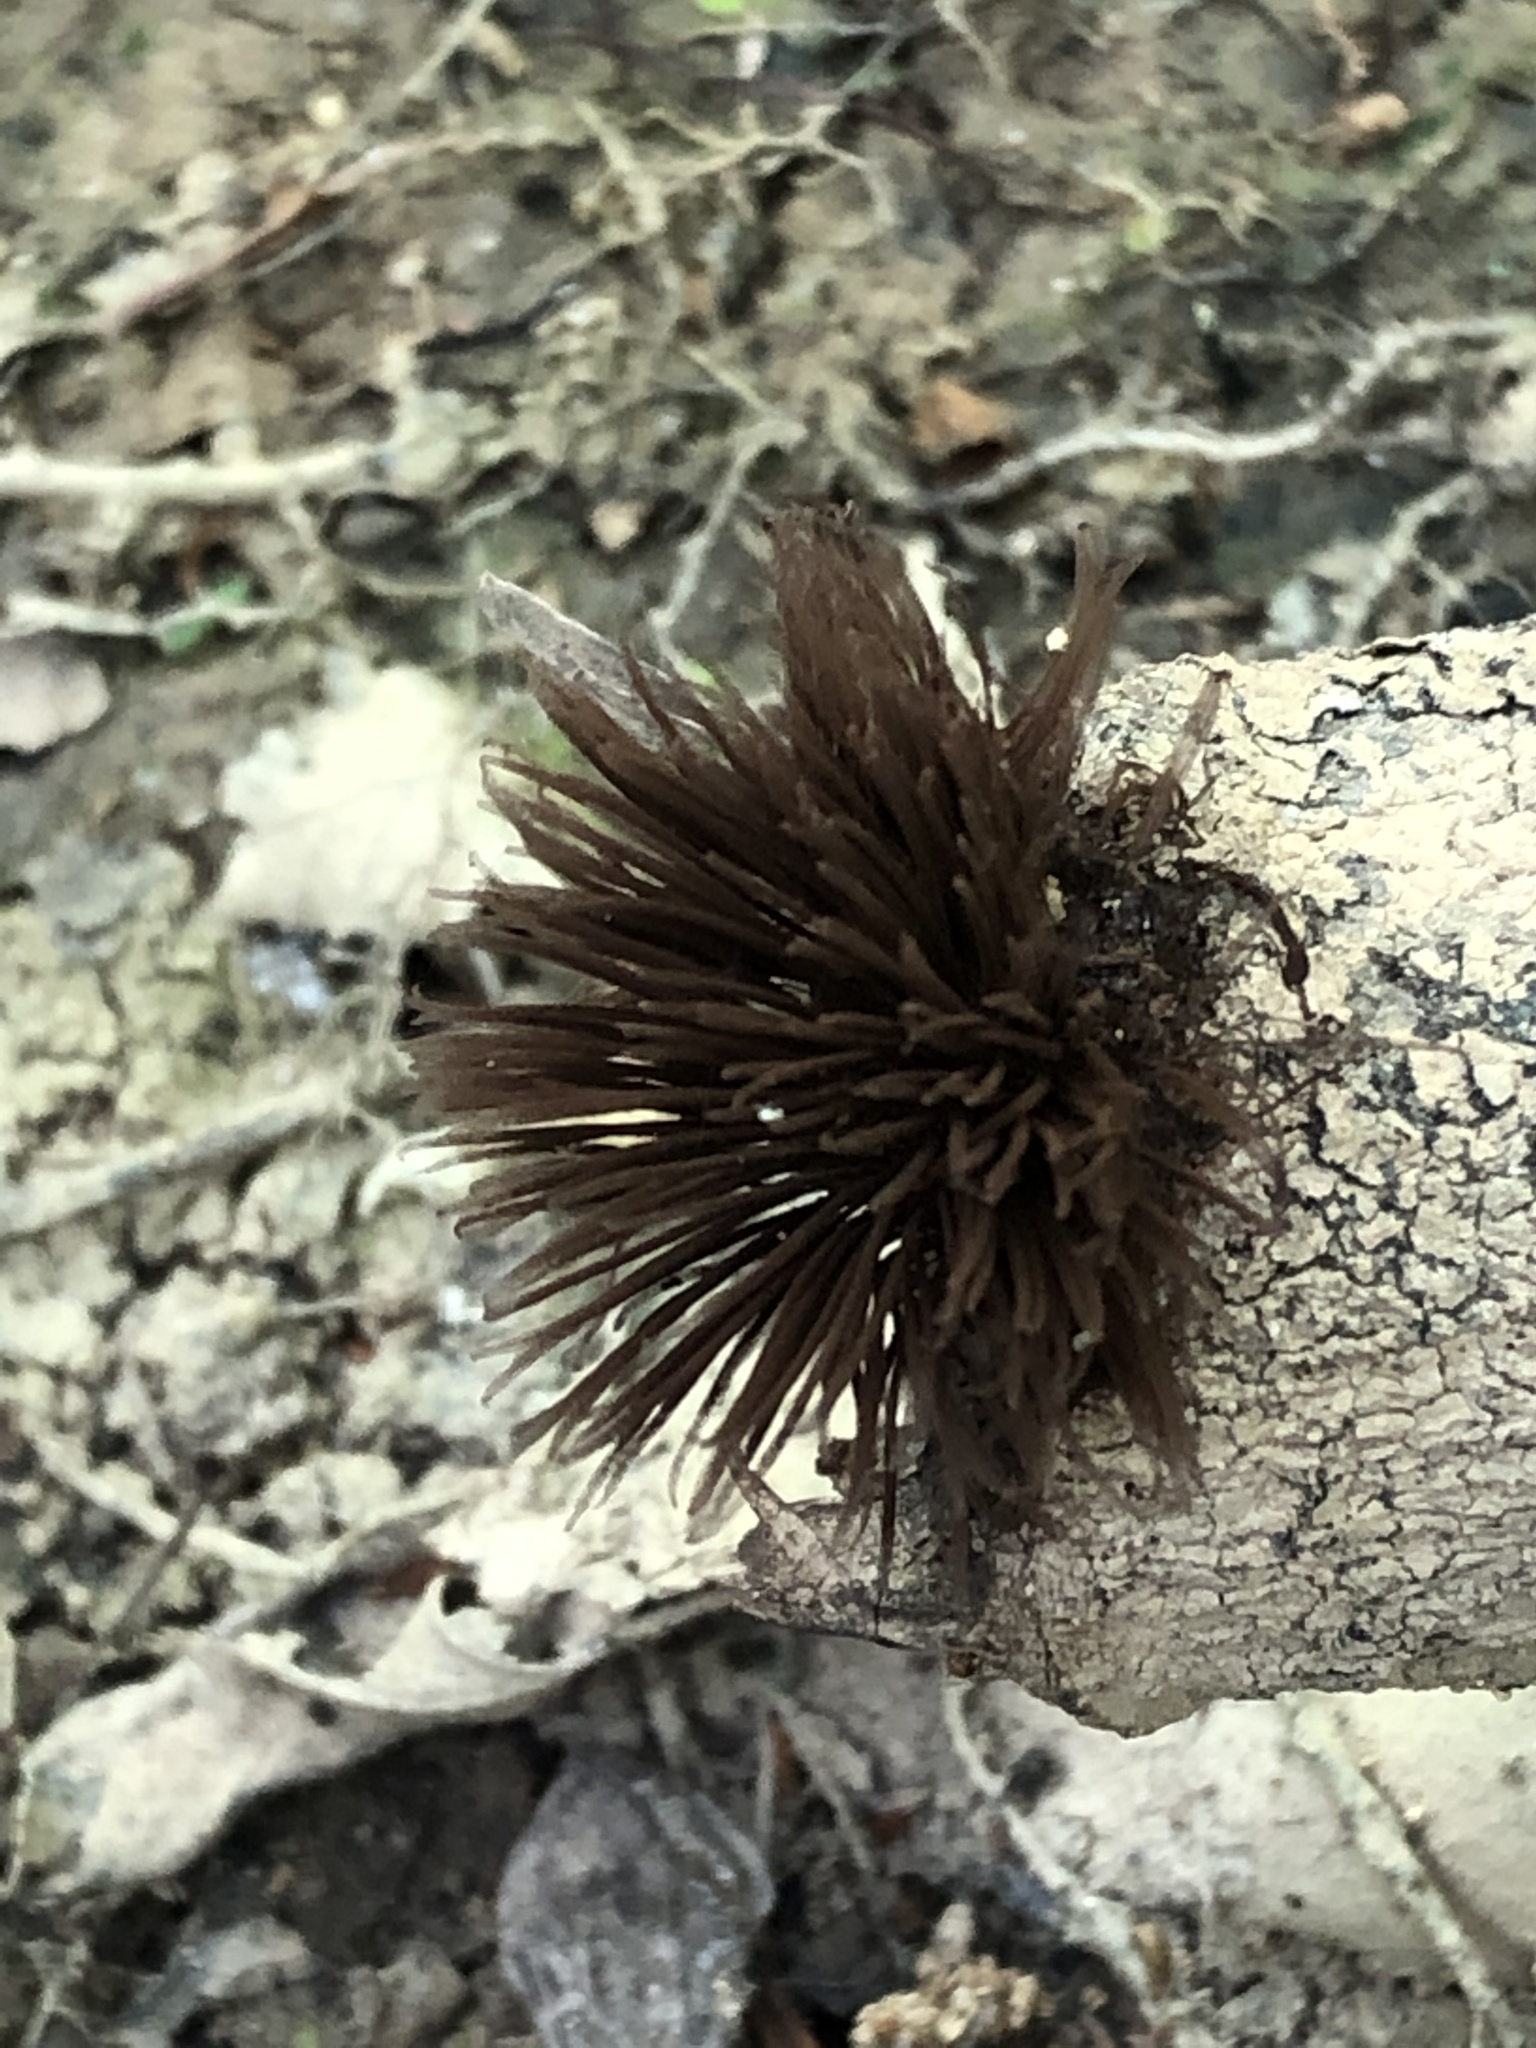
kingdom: Protozoa
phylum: Mycetozoa
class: Myxomycetes
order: Stemonitidales
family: Stemonitidaceae
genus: Stemonitis
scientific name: Stemonitis splendens
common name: Chocolate tube slime
